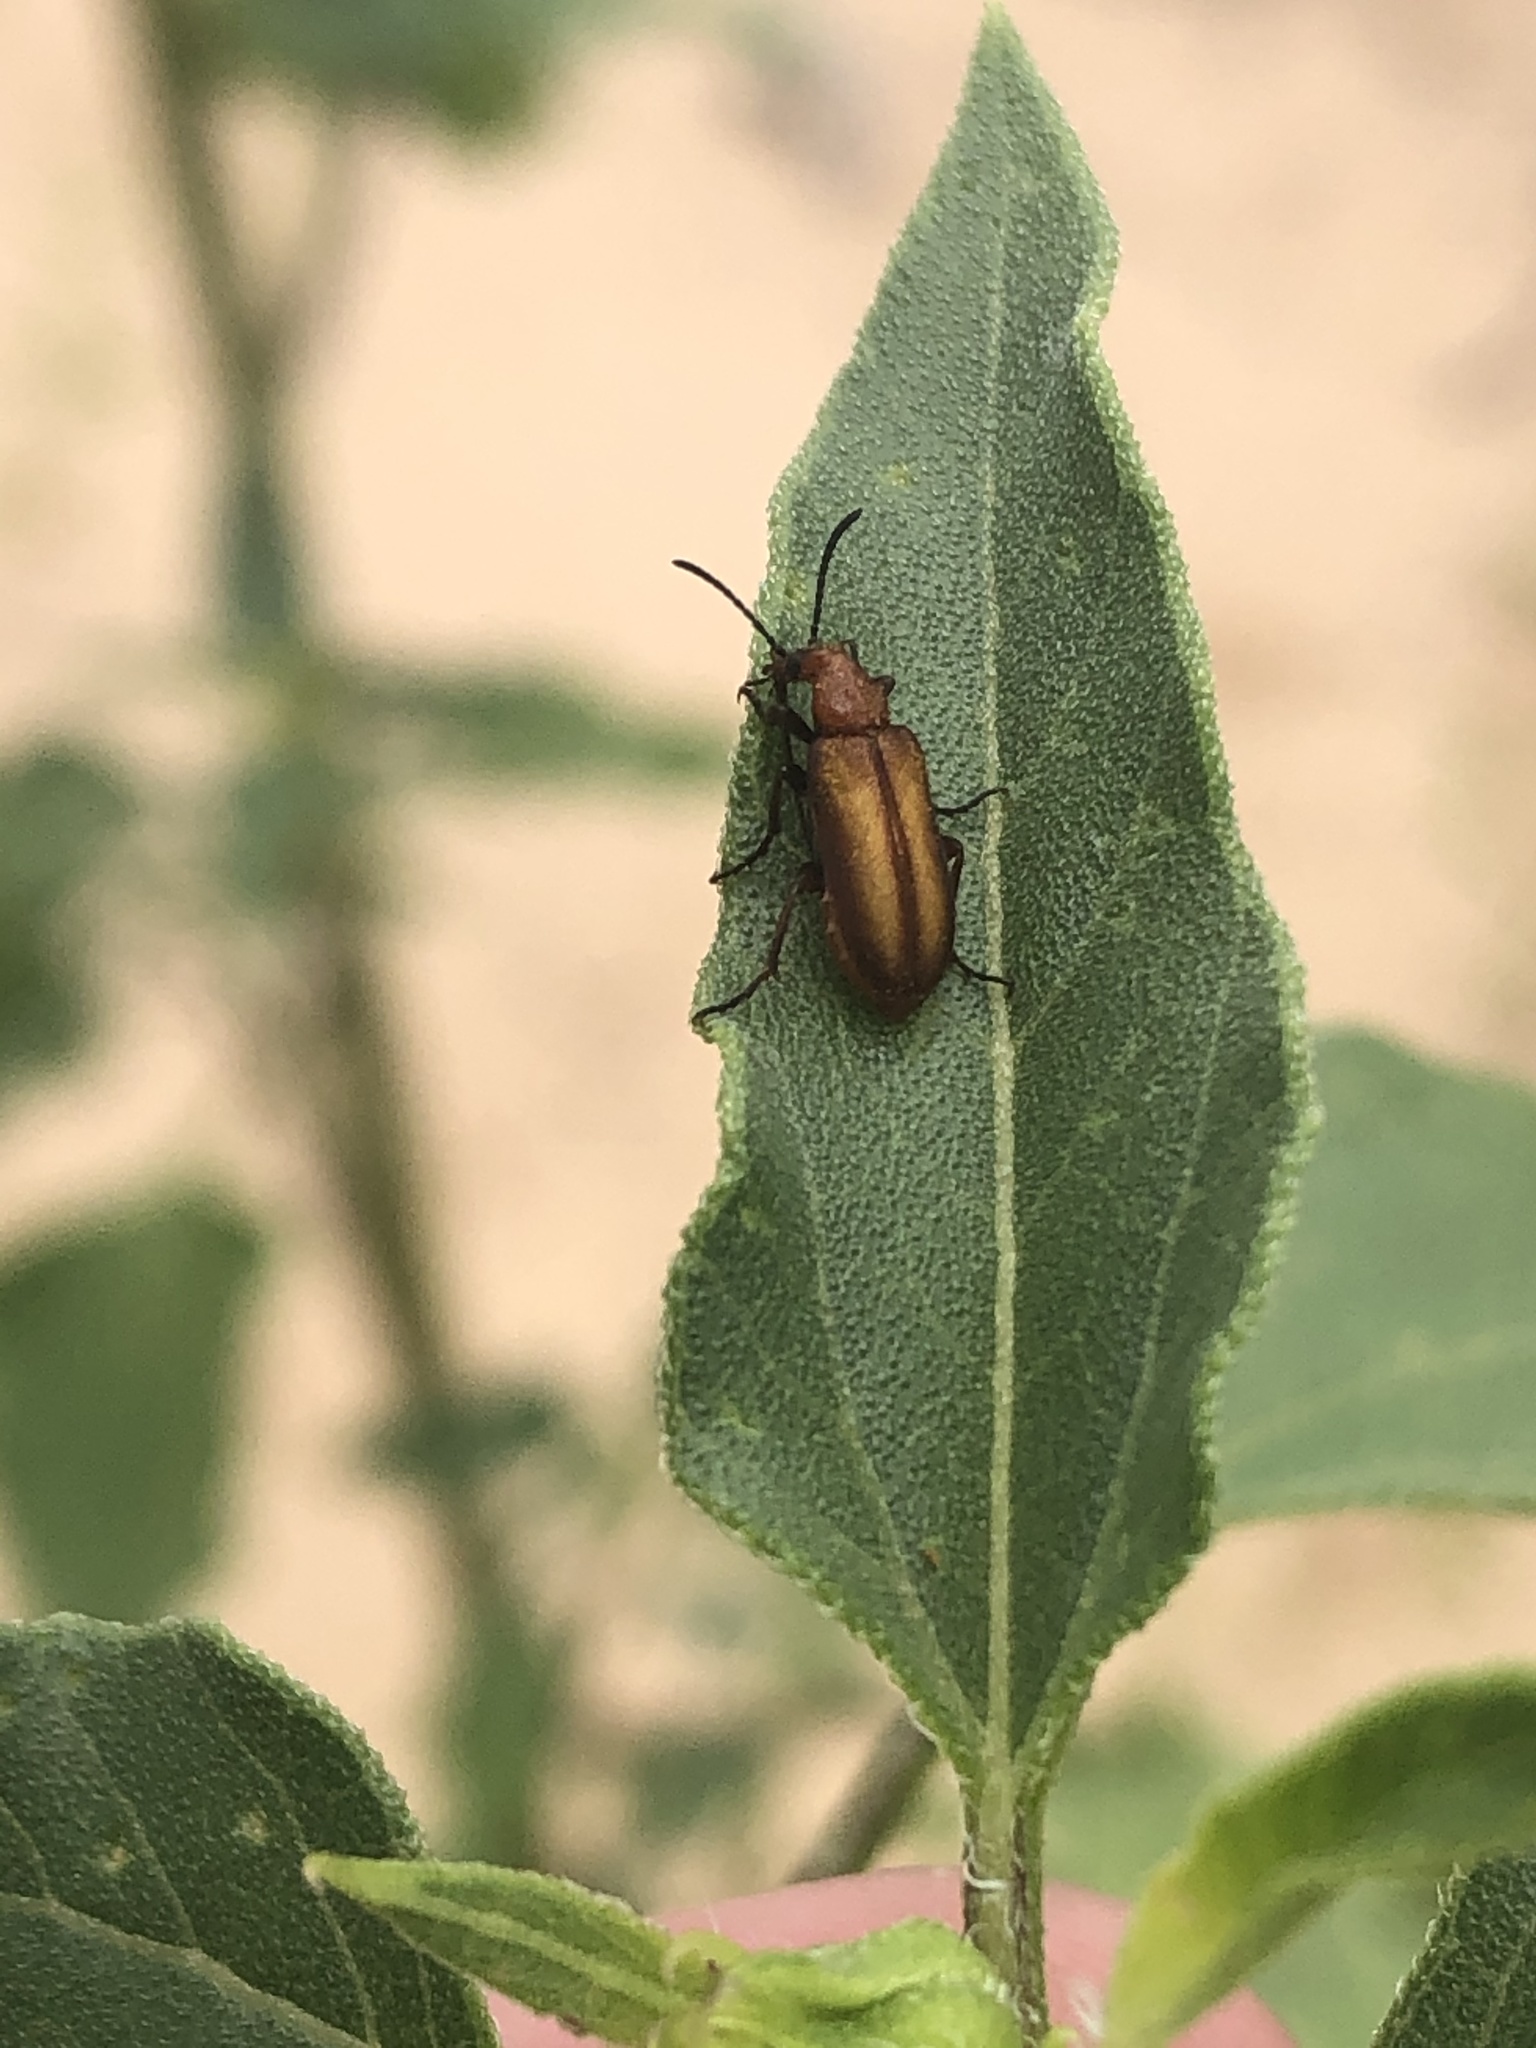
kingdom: Animalia
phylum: Arthropoda
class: Insecta
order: Coleoptera
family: Meloidae
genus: Gnathium
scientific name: Gnathium minimum
